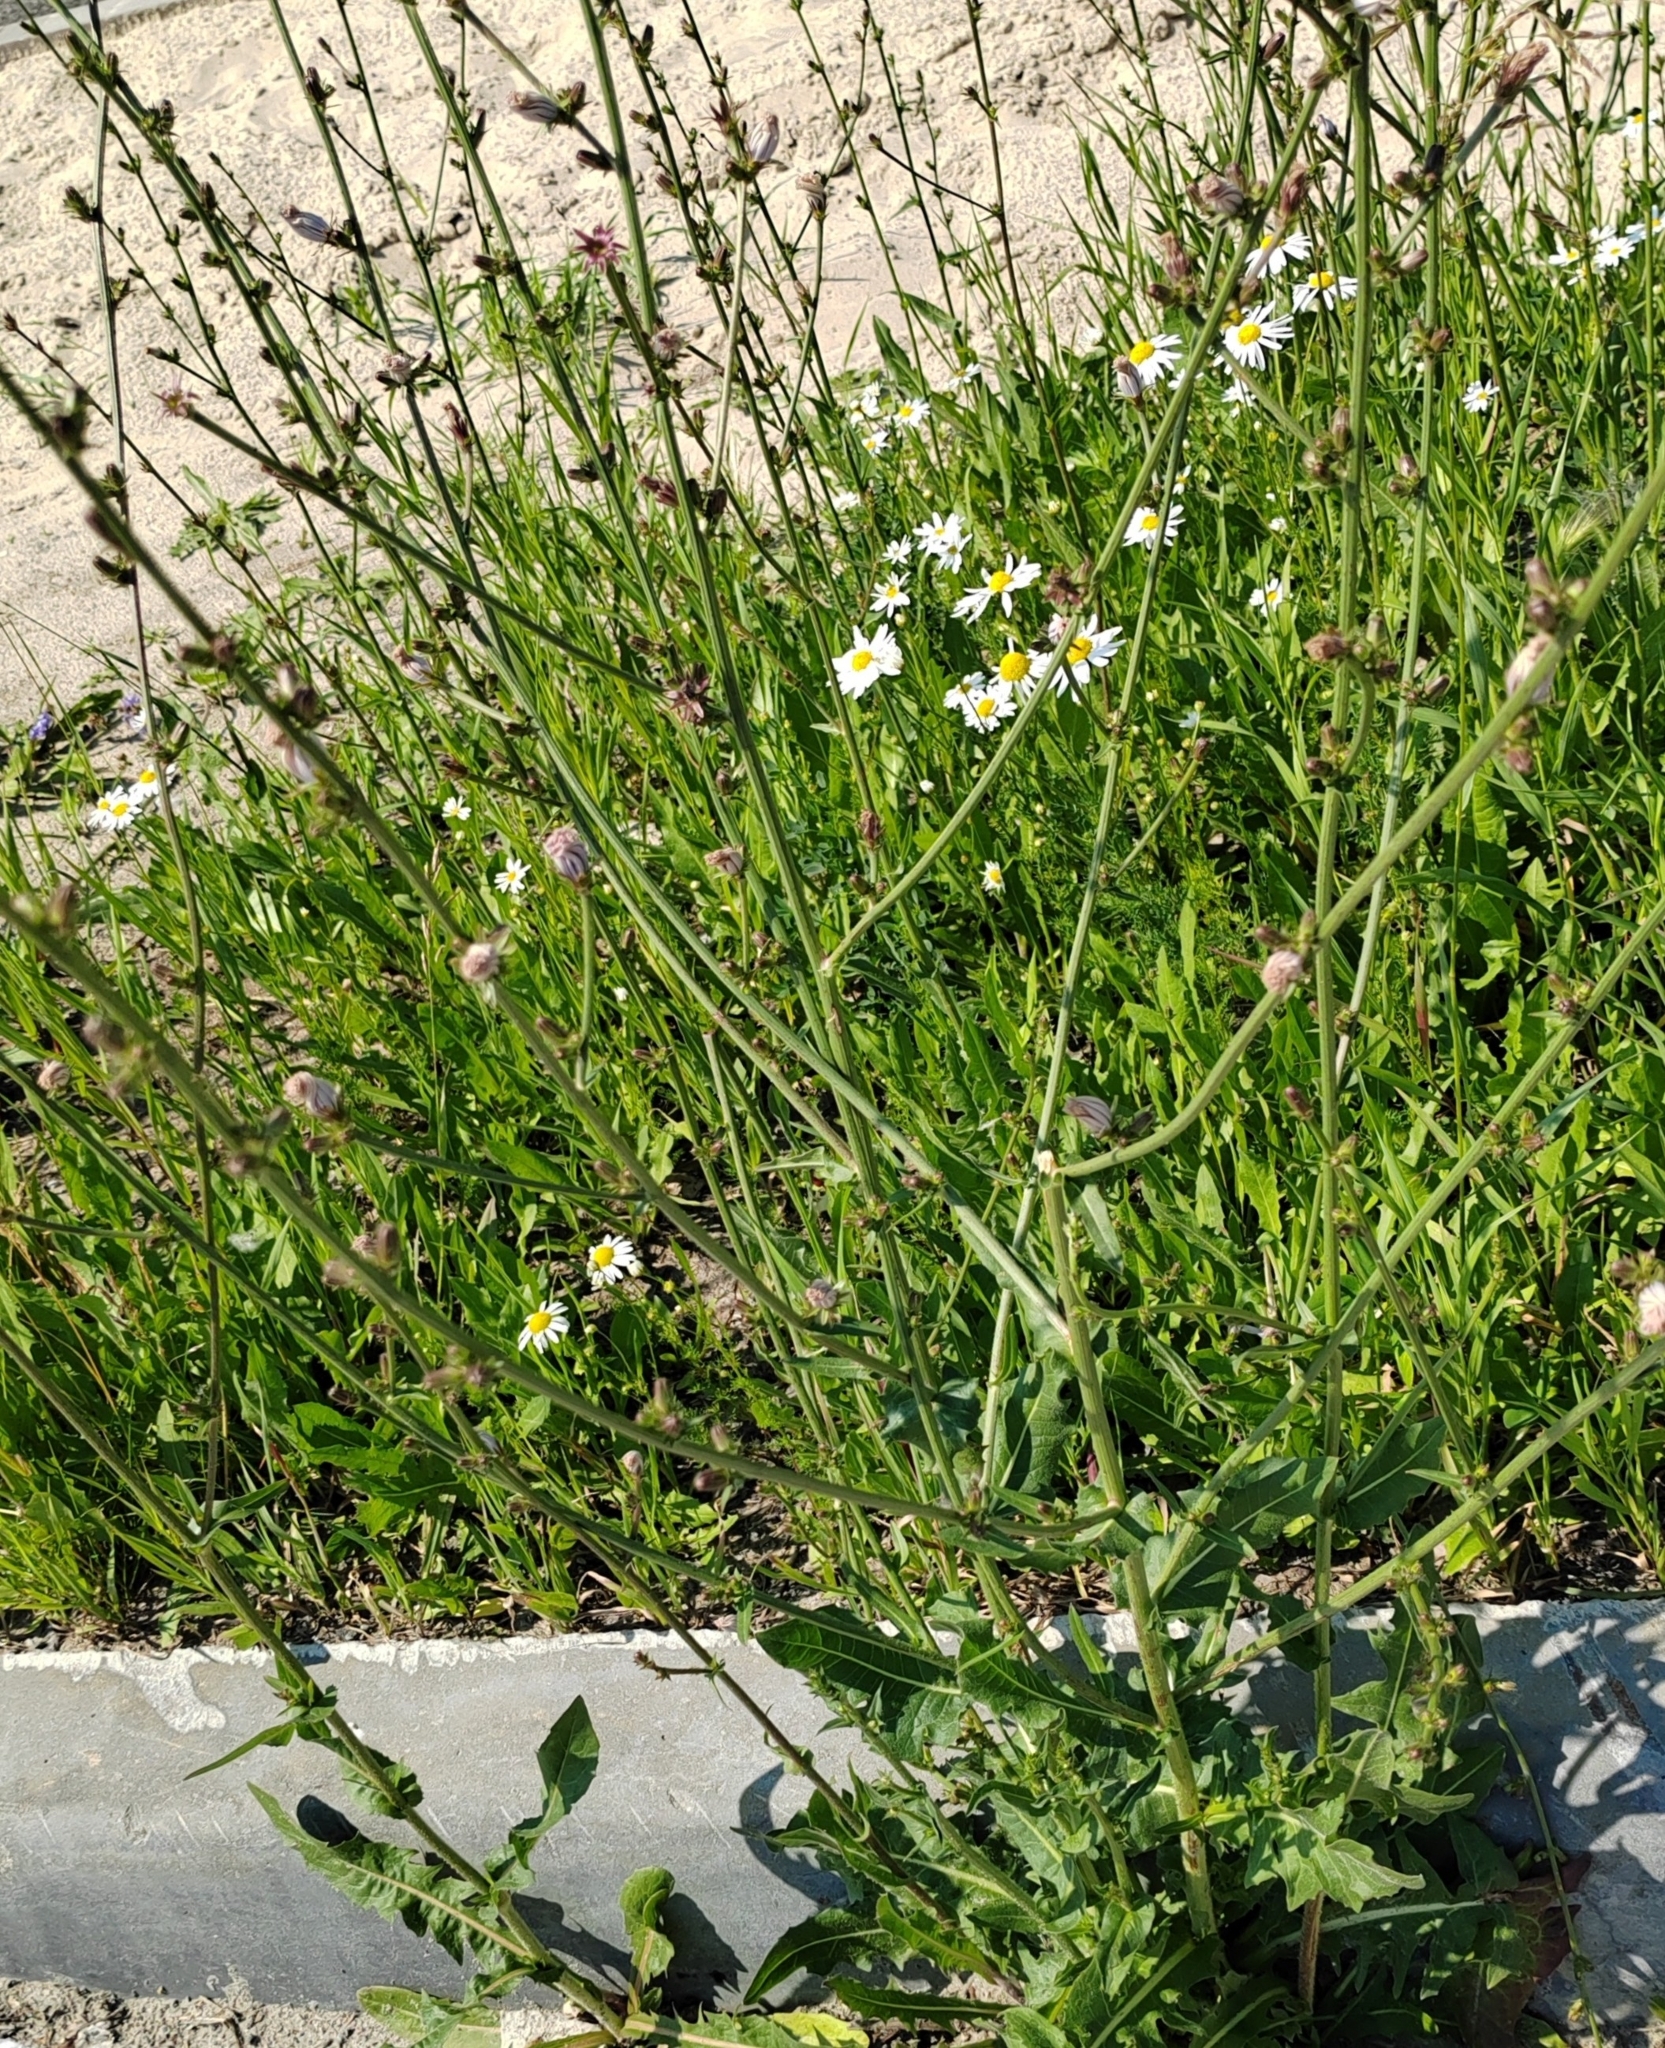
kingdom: Plantae
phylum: Tracheophyta
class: Magnoliopsida
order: Asterales
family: Asteraceae
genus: Cichorium
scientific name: Cichorium intybus
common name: Chicory
